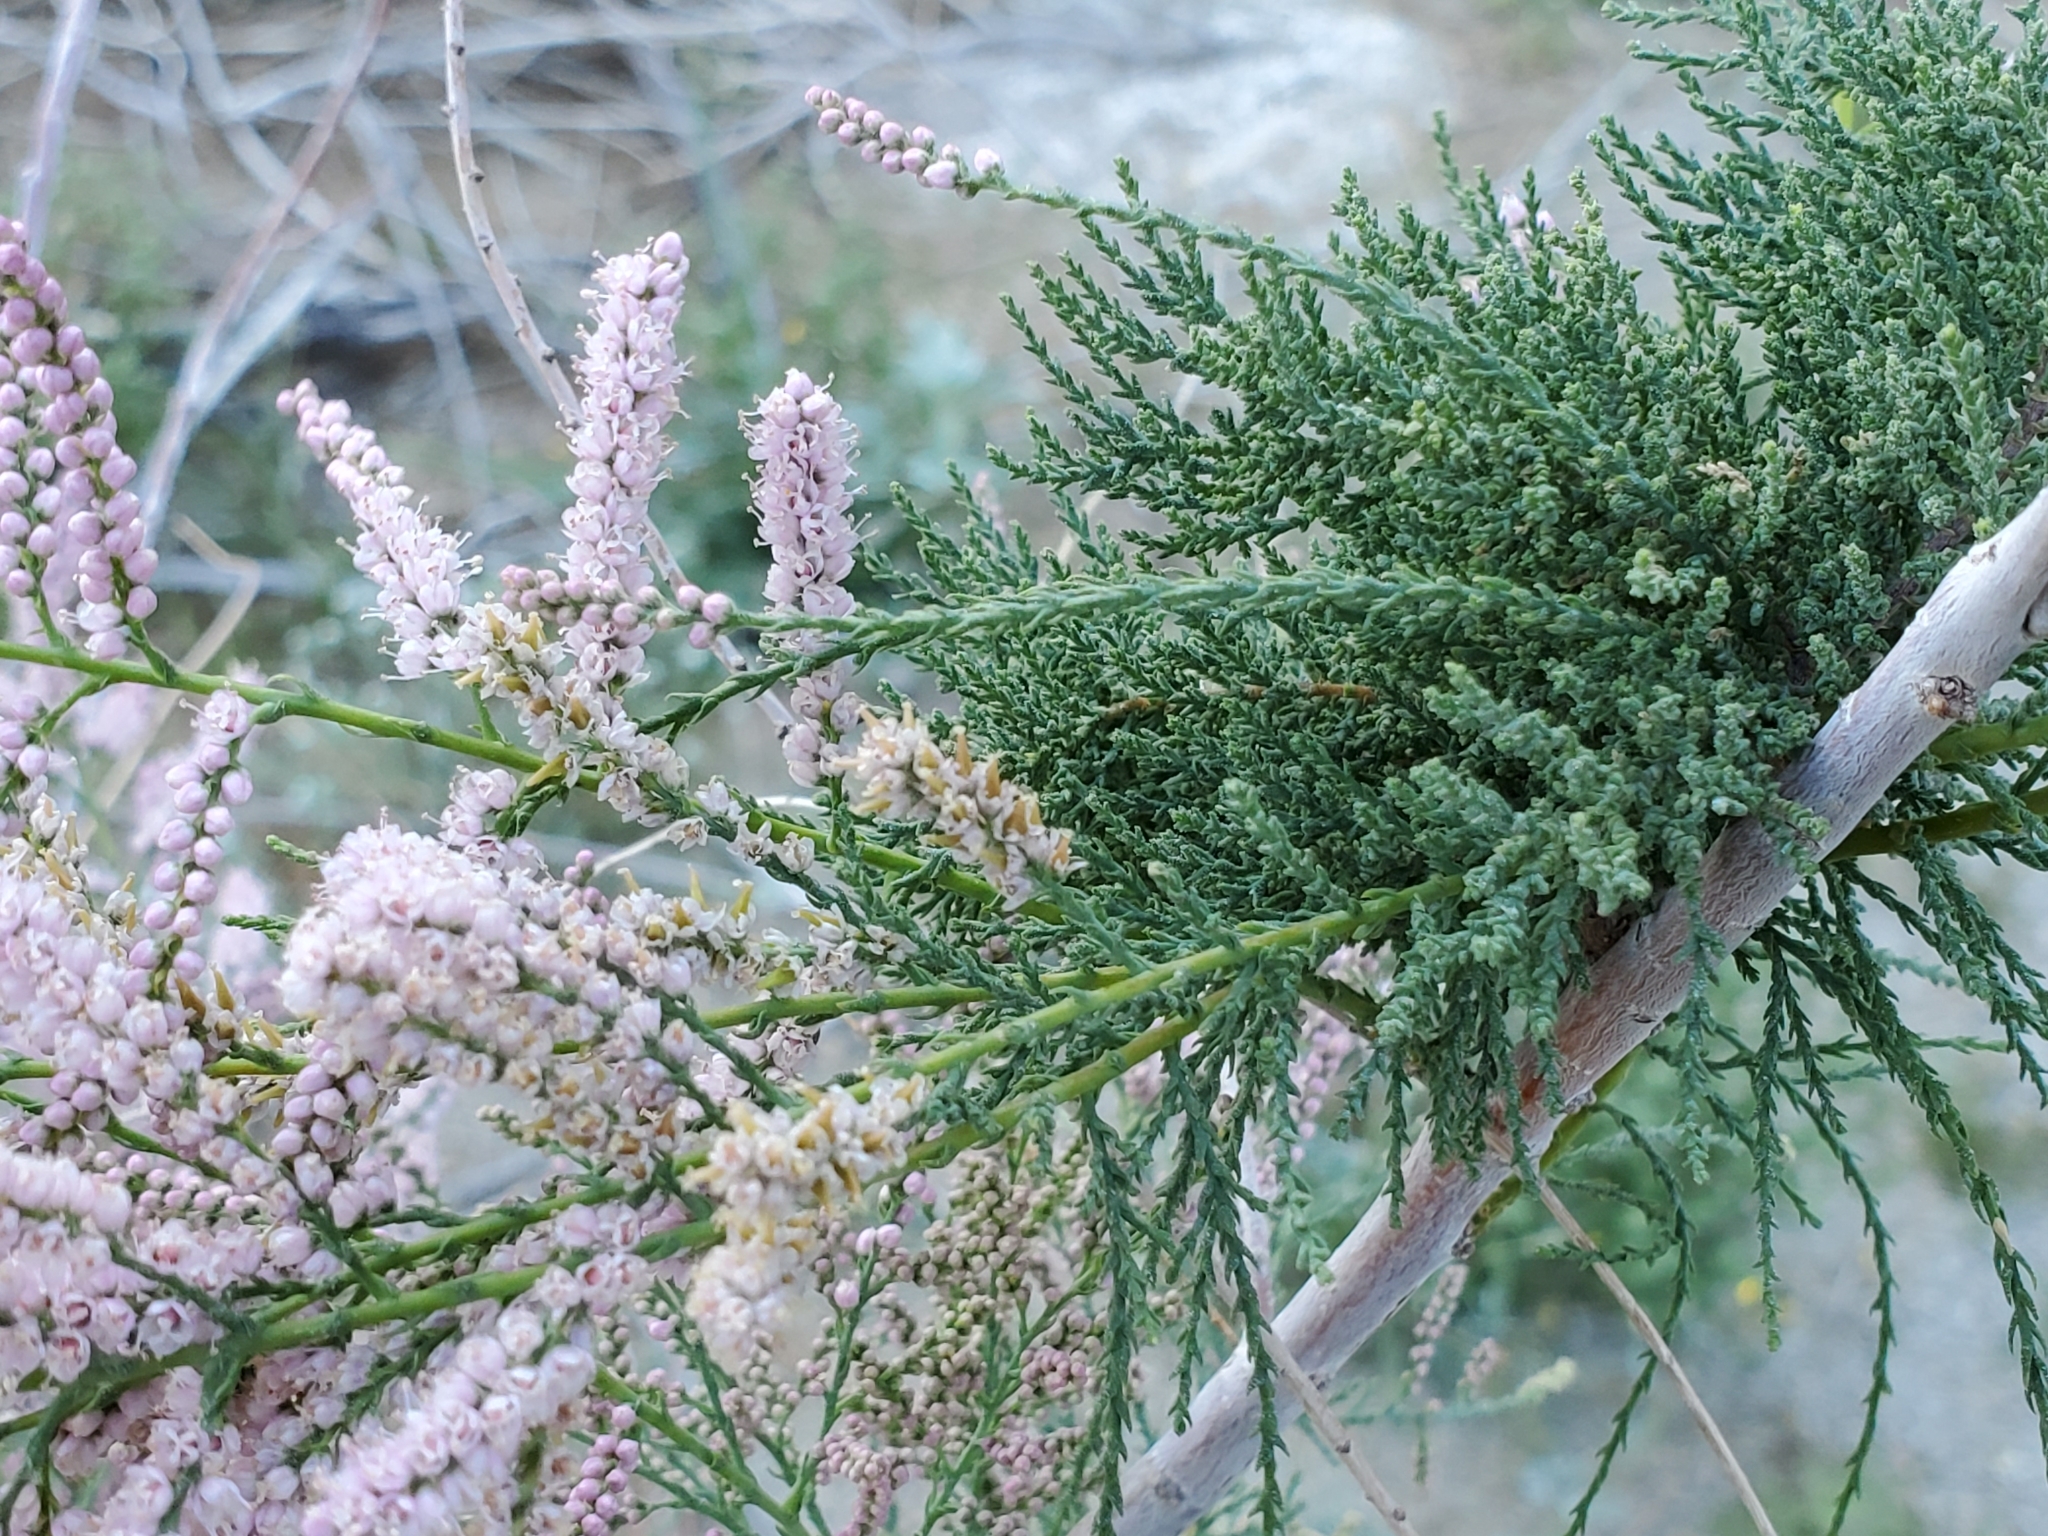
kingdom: Plantae
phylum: Tracheophyta
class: Magnoliopsida
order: Caryophyllales
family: Tamaricaceae
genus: Tamarix
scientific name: Tamarix ramosissima
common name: Pink tamarisk
